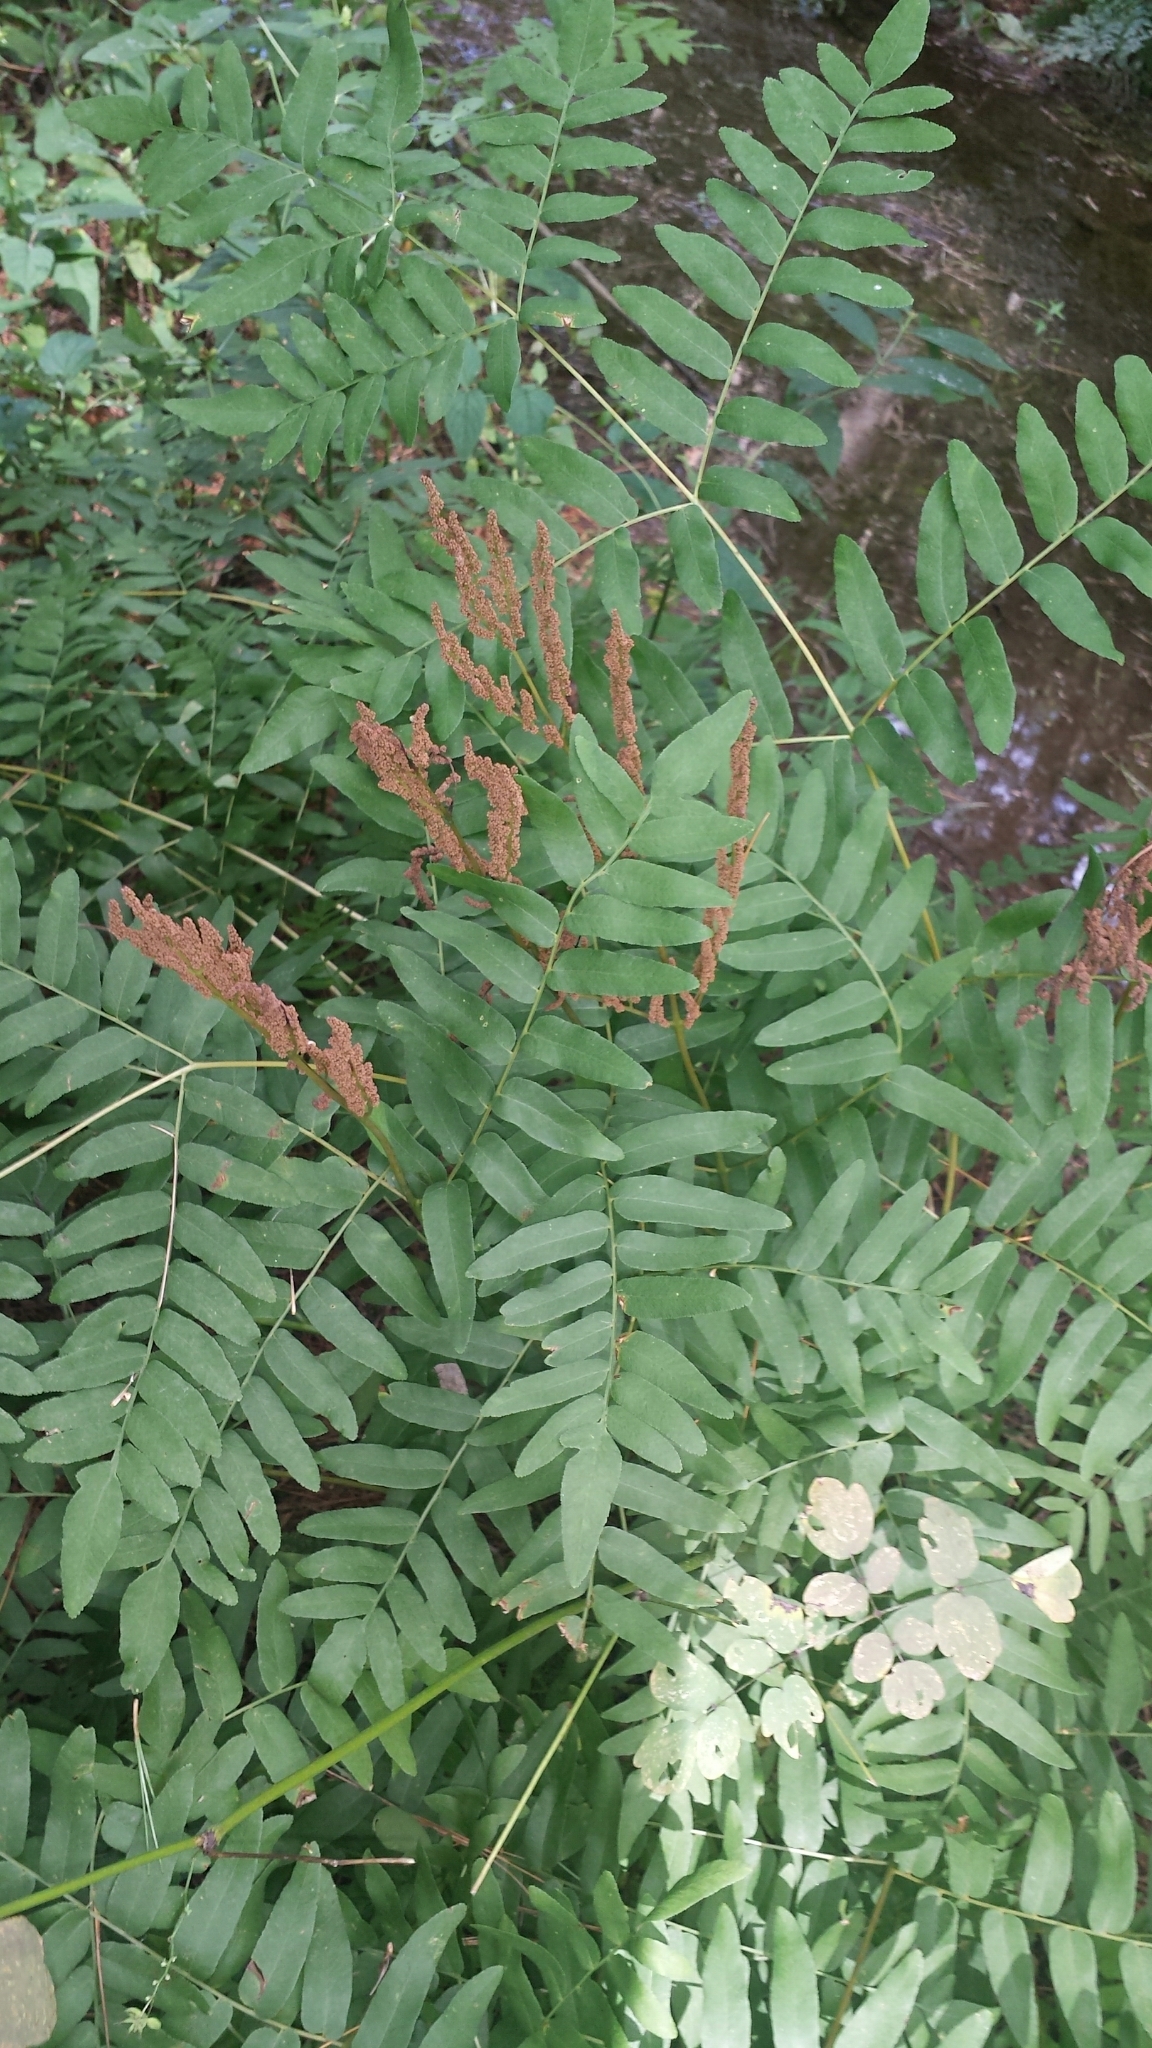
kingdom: Plantae
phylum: Tracheophyta
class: Polypodiopsida
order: Osmundales
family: Osmundaceae
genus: Osmunda
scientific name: Osmunda spectabilis
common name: American royal fern
